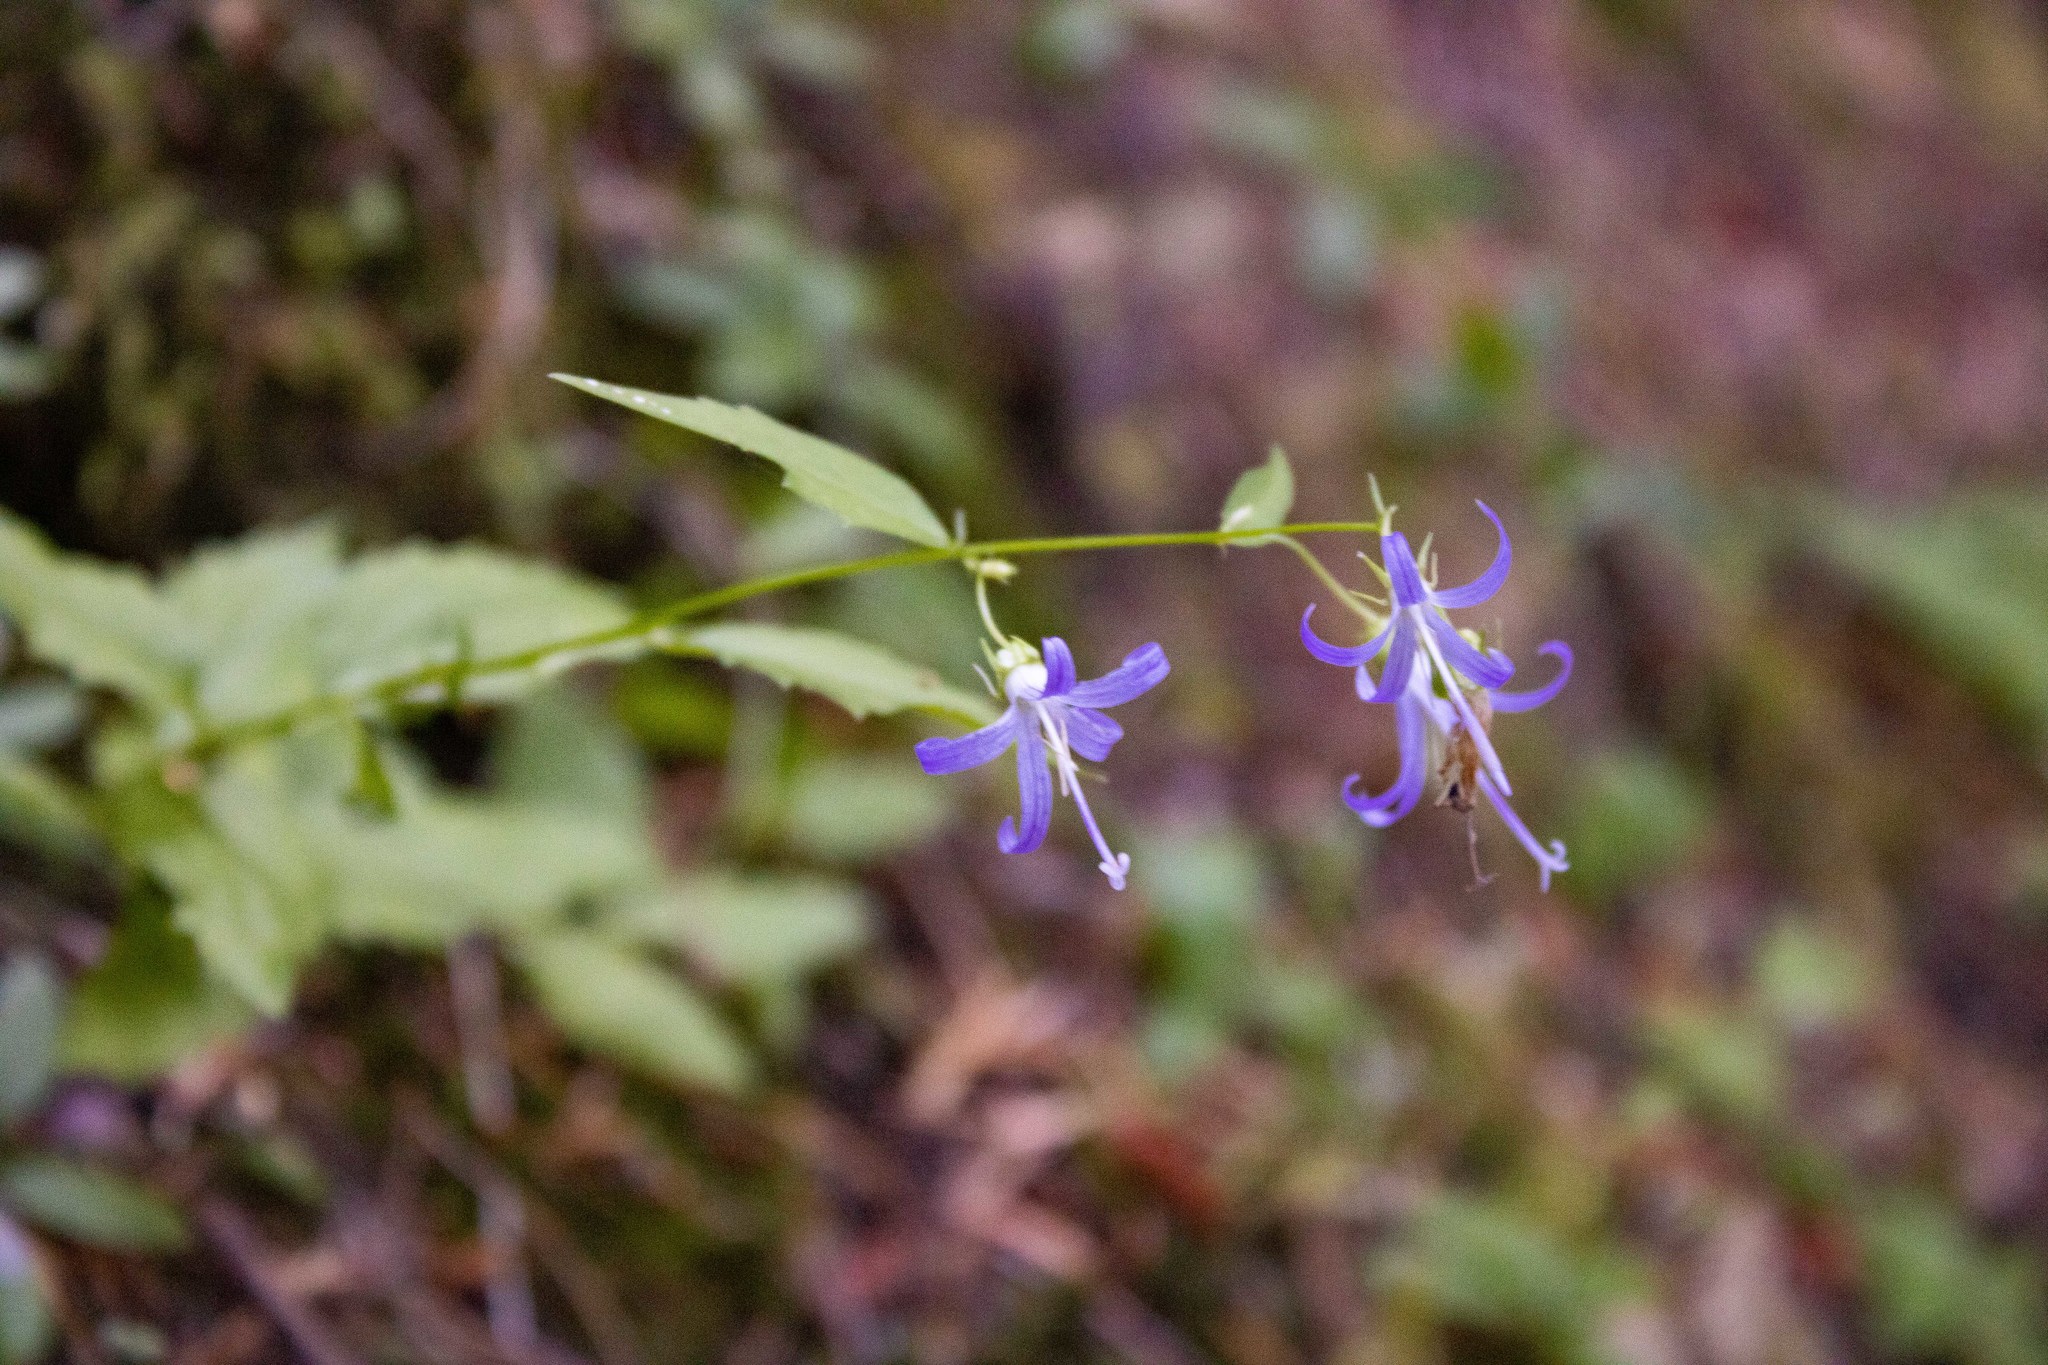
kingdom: Plantae
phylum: Tracheophyta
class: Magnoliopsida
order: Asterales
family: Campanulaceae
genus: Smithiastrum
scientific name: Smithiastrum prenanthoides
